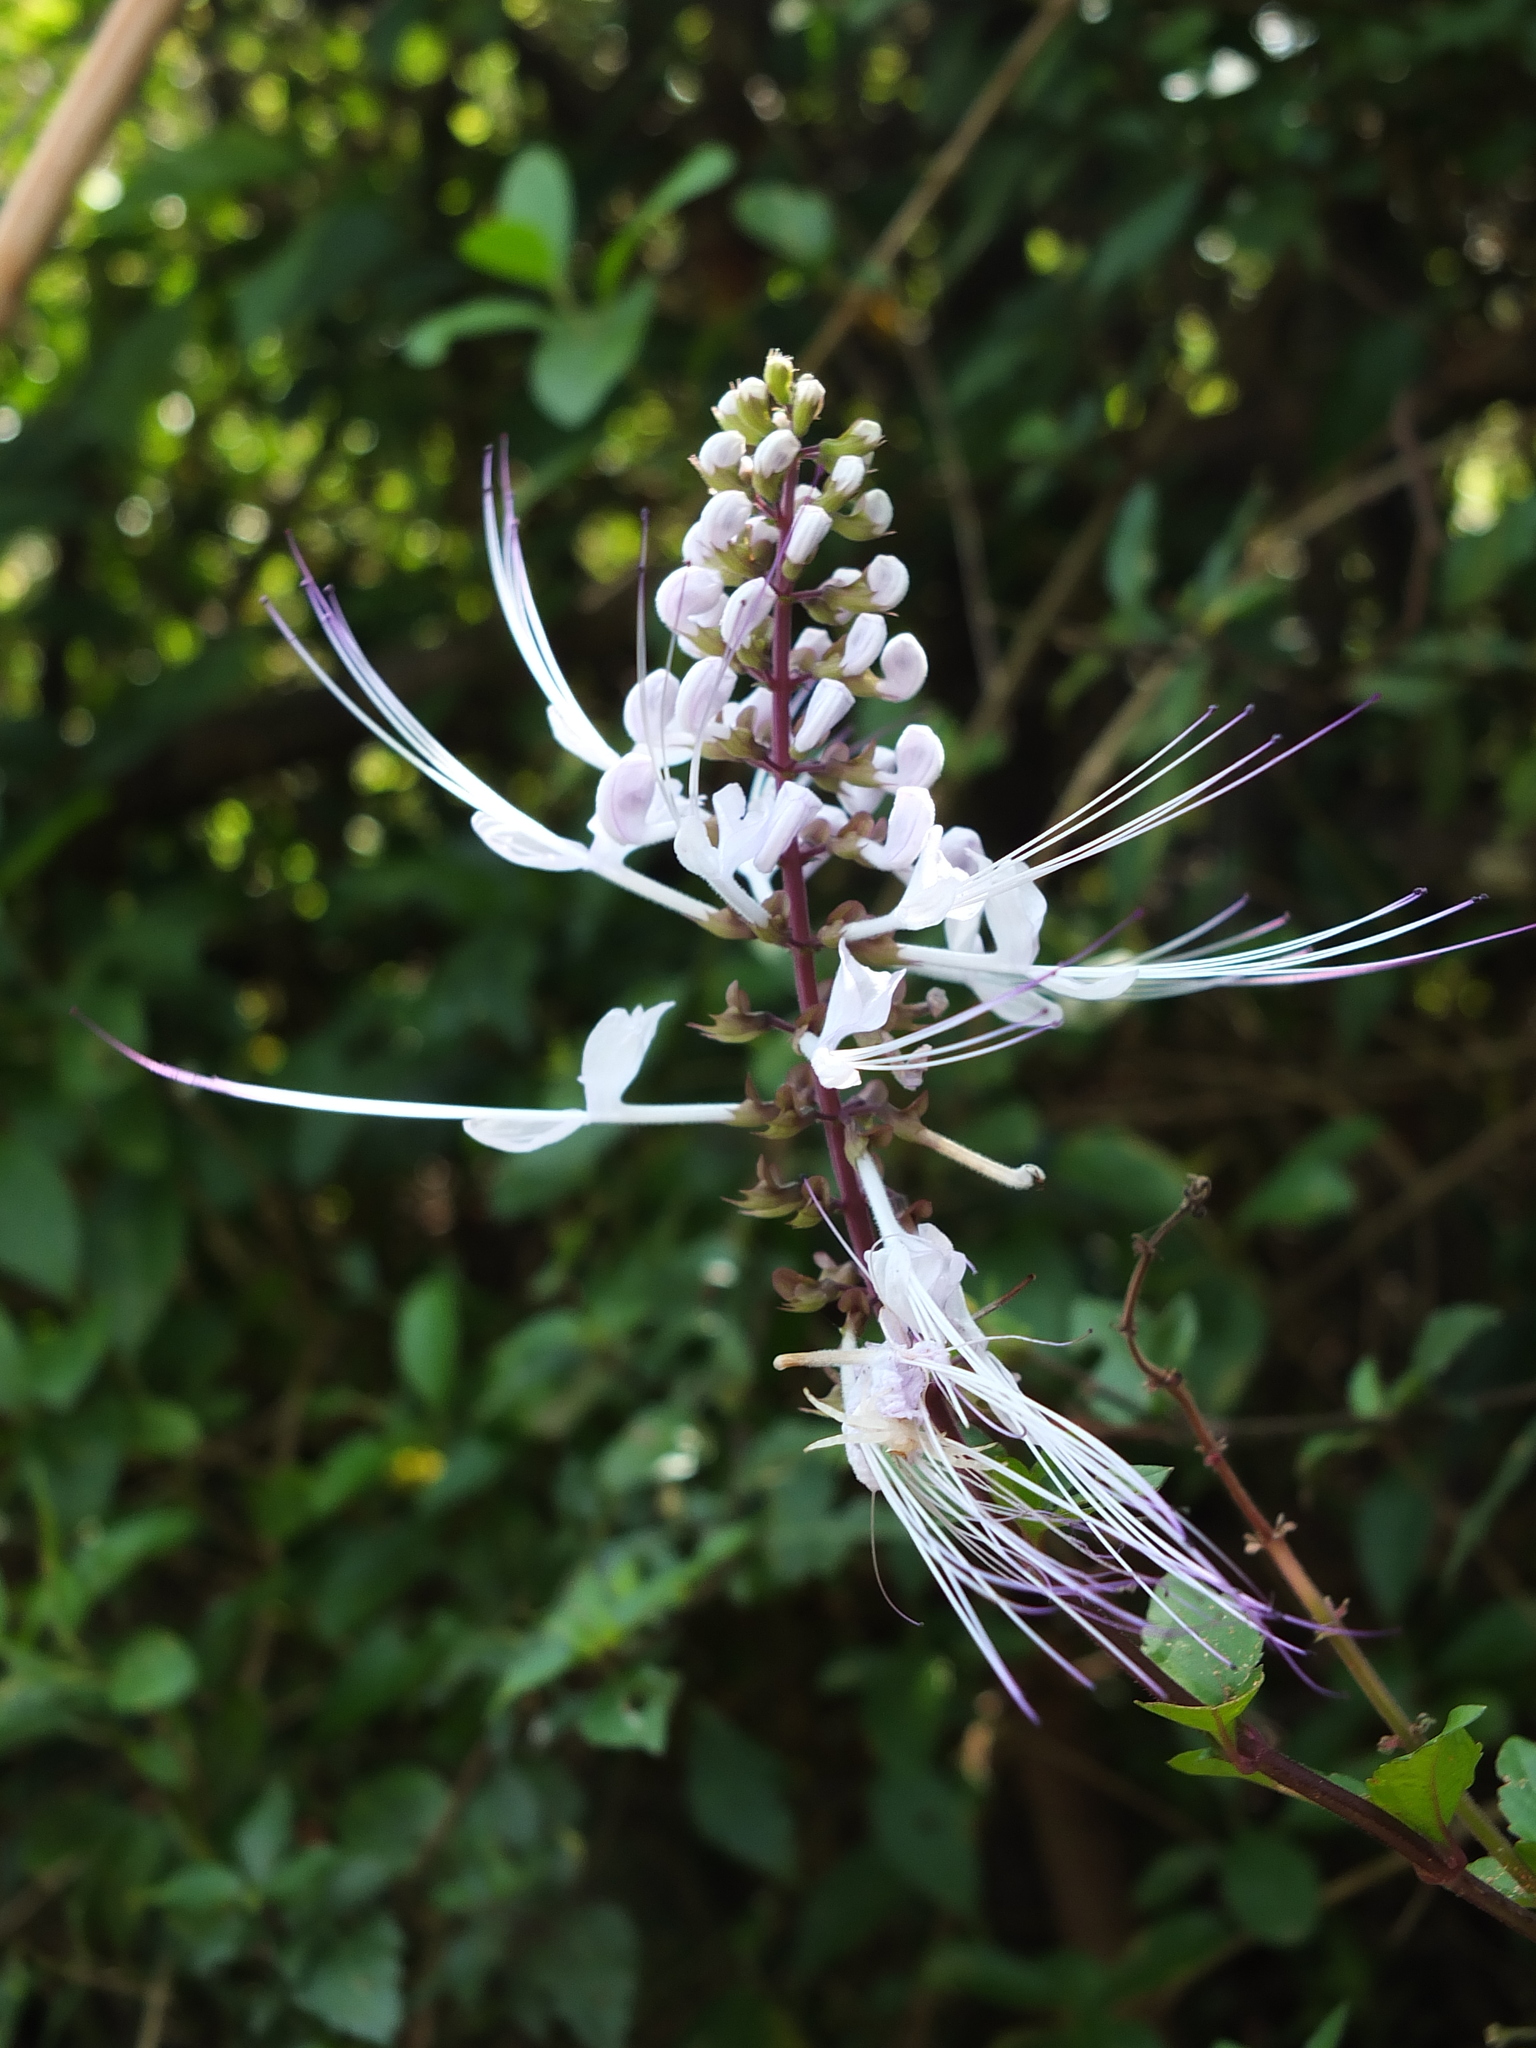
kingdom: Plantae
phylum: Tracheophyta
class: Magnoliopsida
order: Lamiales
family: Lamiaceae
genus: Orthosiphon
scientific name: Orthosiphon aristatus
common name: Whiskerplant
